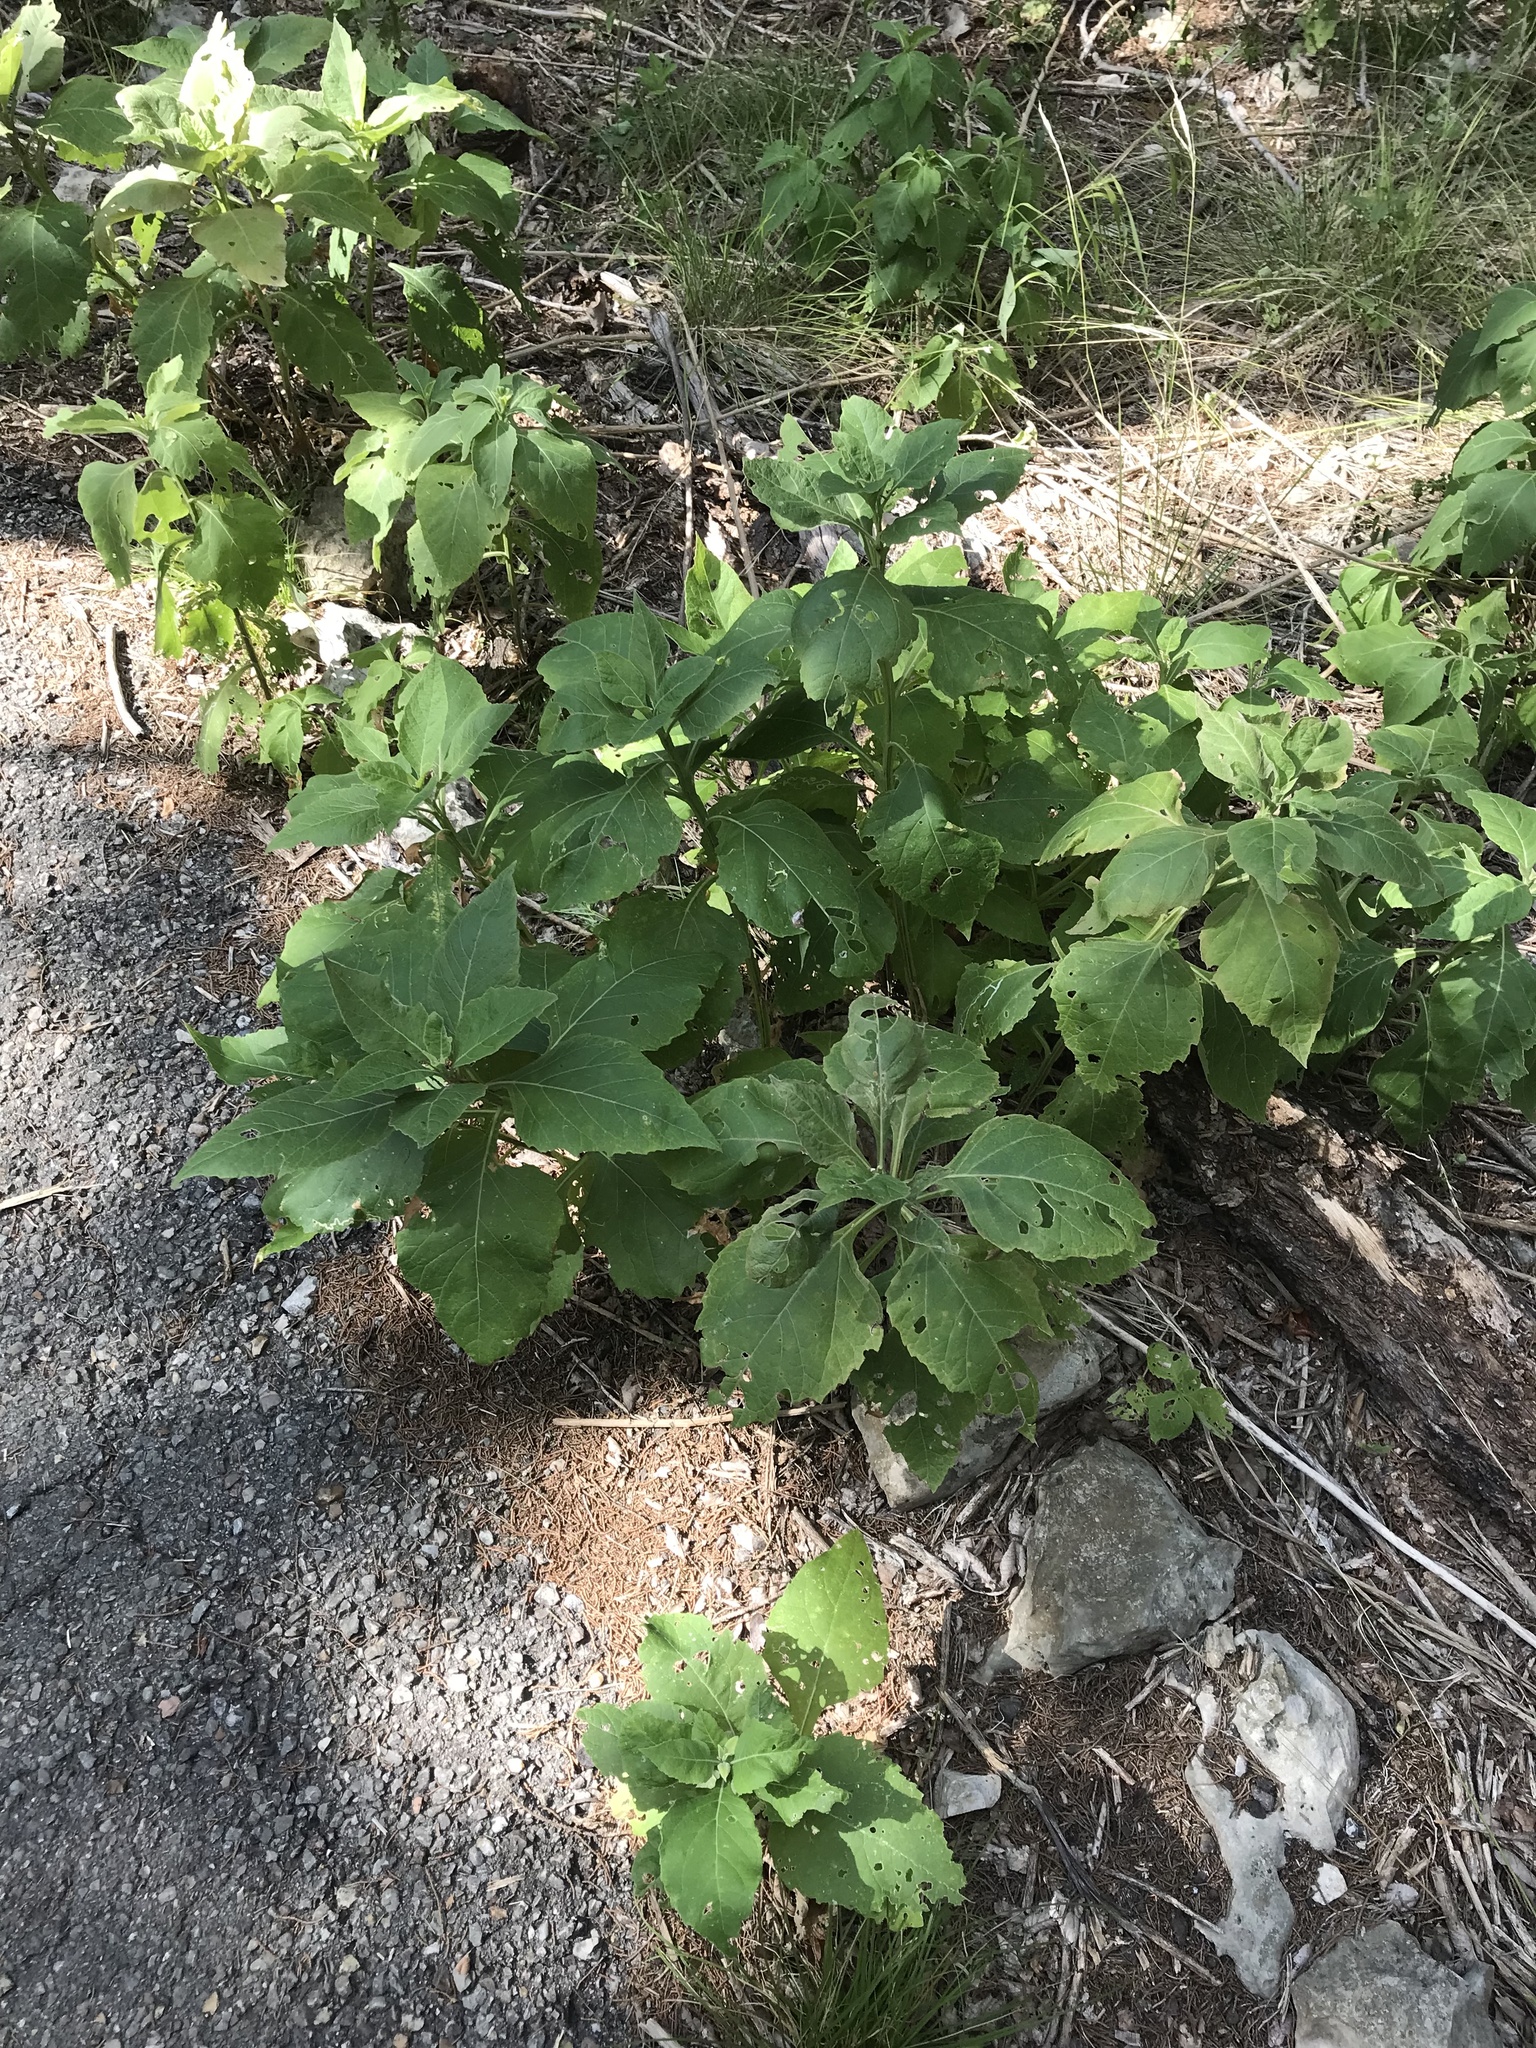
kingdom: Plantae
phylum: Tracheophyta
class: Magnoliopsida
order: Asterales
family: Asteraceae
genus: Verbesina
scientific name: Verbesina virginica
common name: Frostweed
